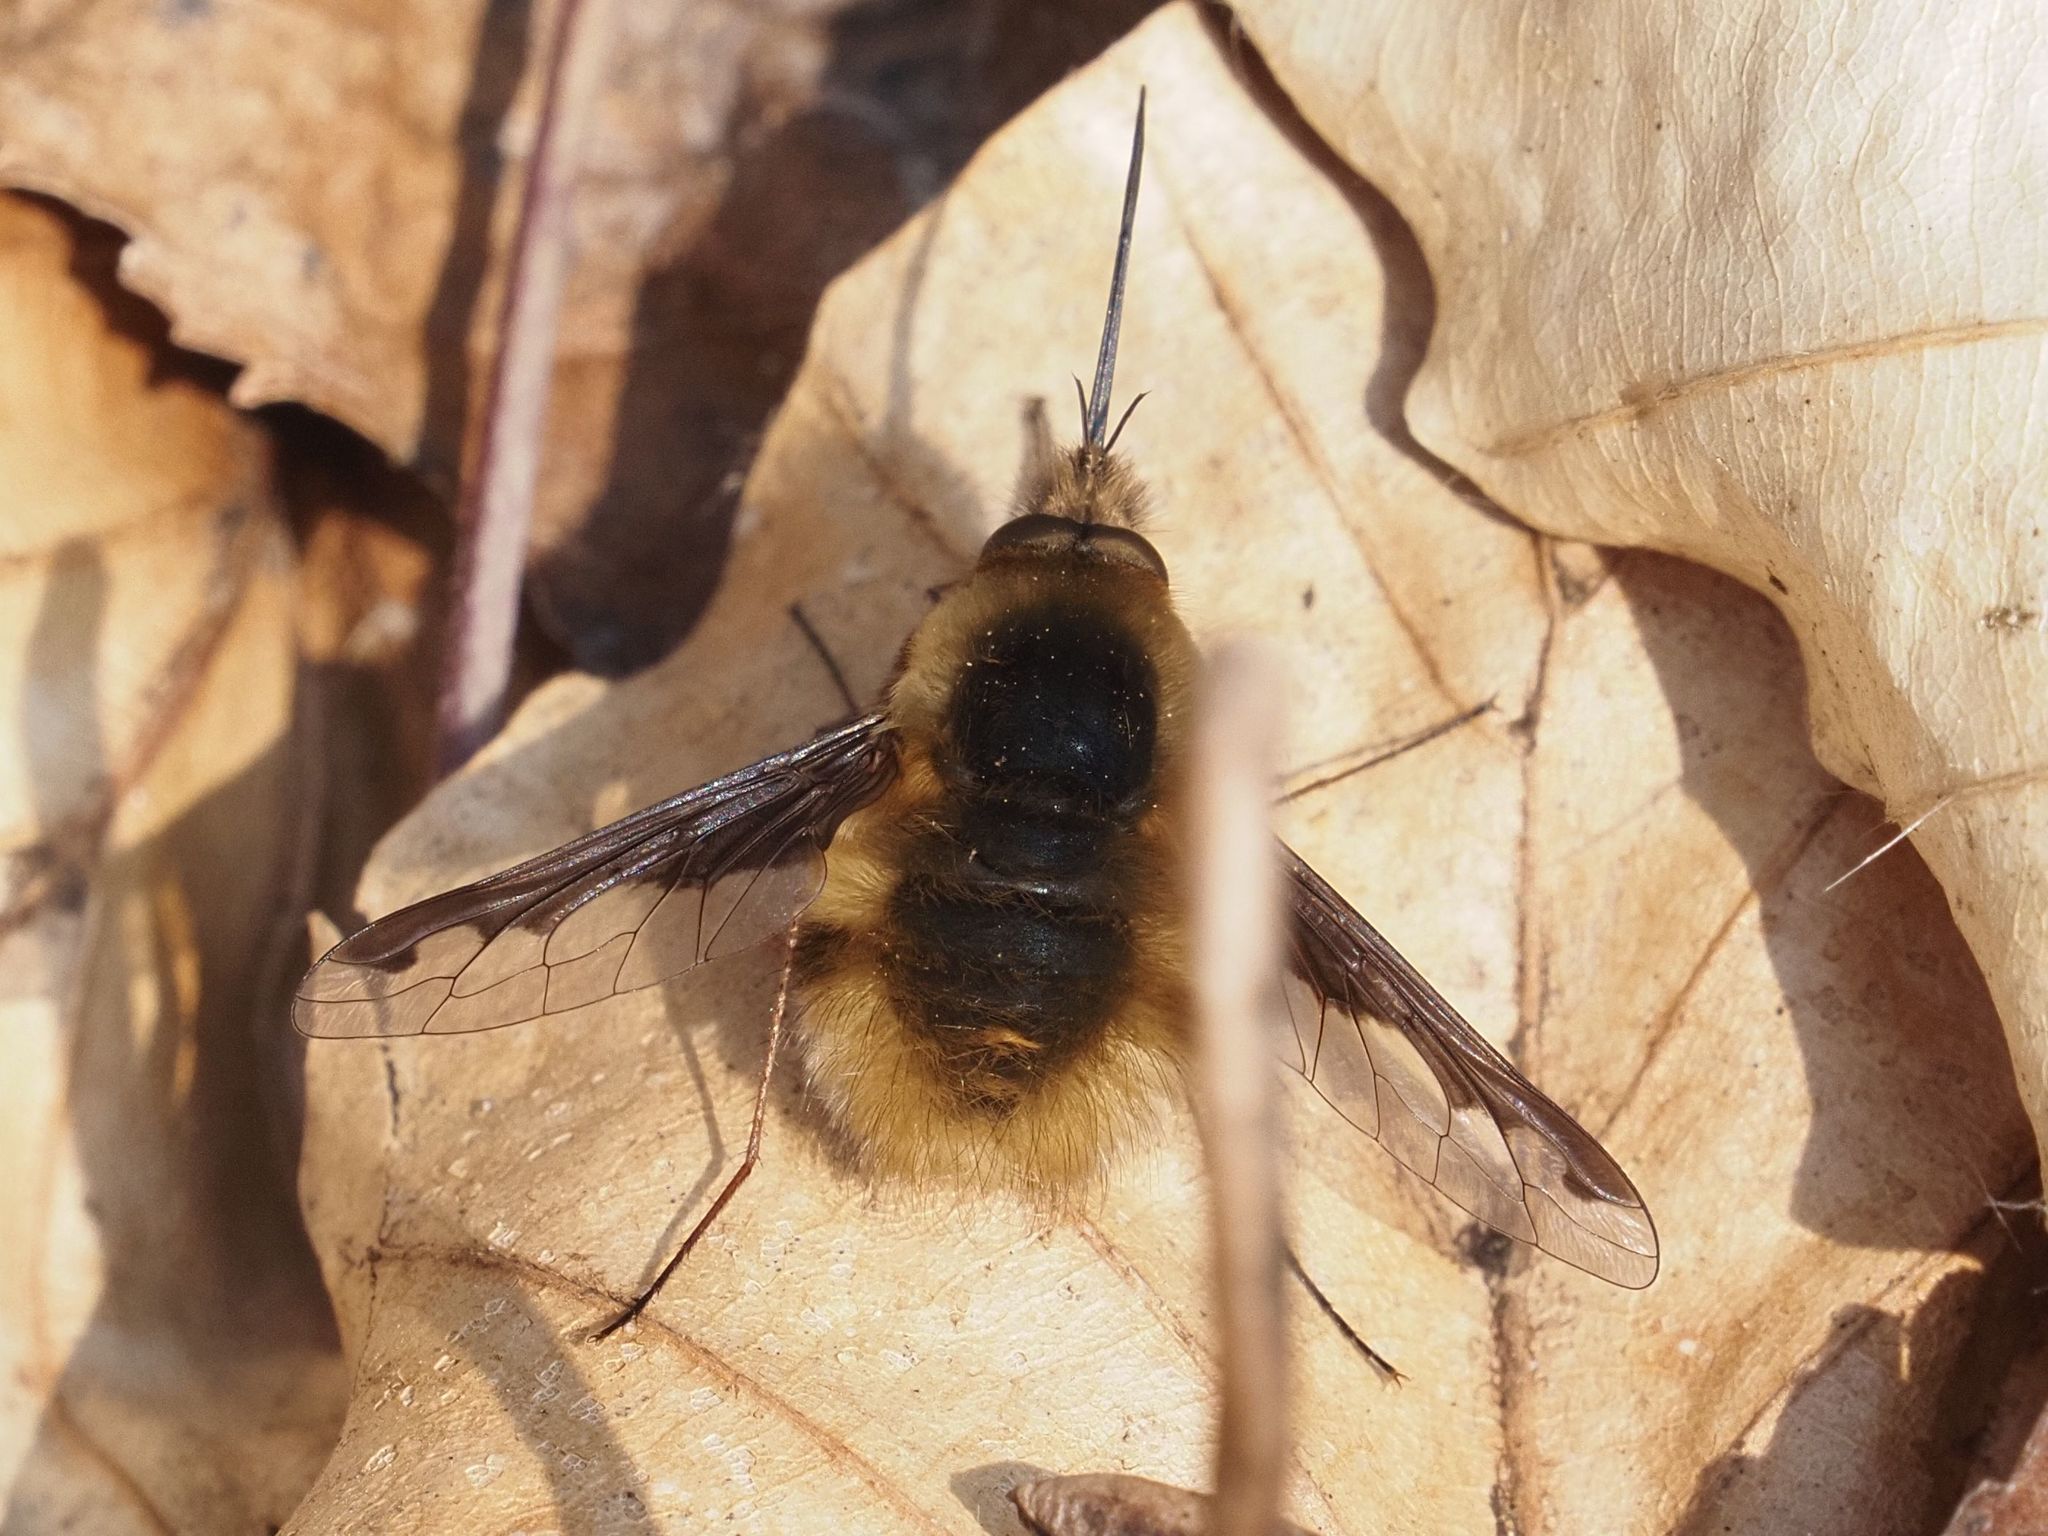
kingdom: Animalia
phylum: Arthropoda
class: Insecta
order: Diptera
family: Bombyliidae
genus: Bombylius
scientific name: Bombylius major
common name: Bee fly
